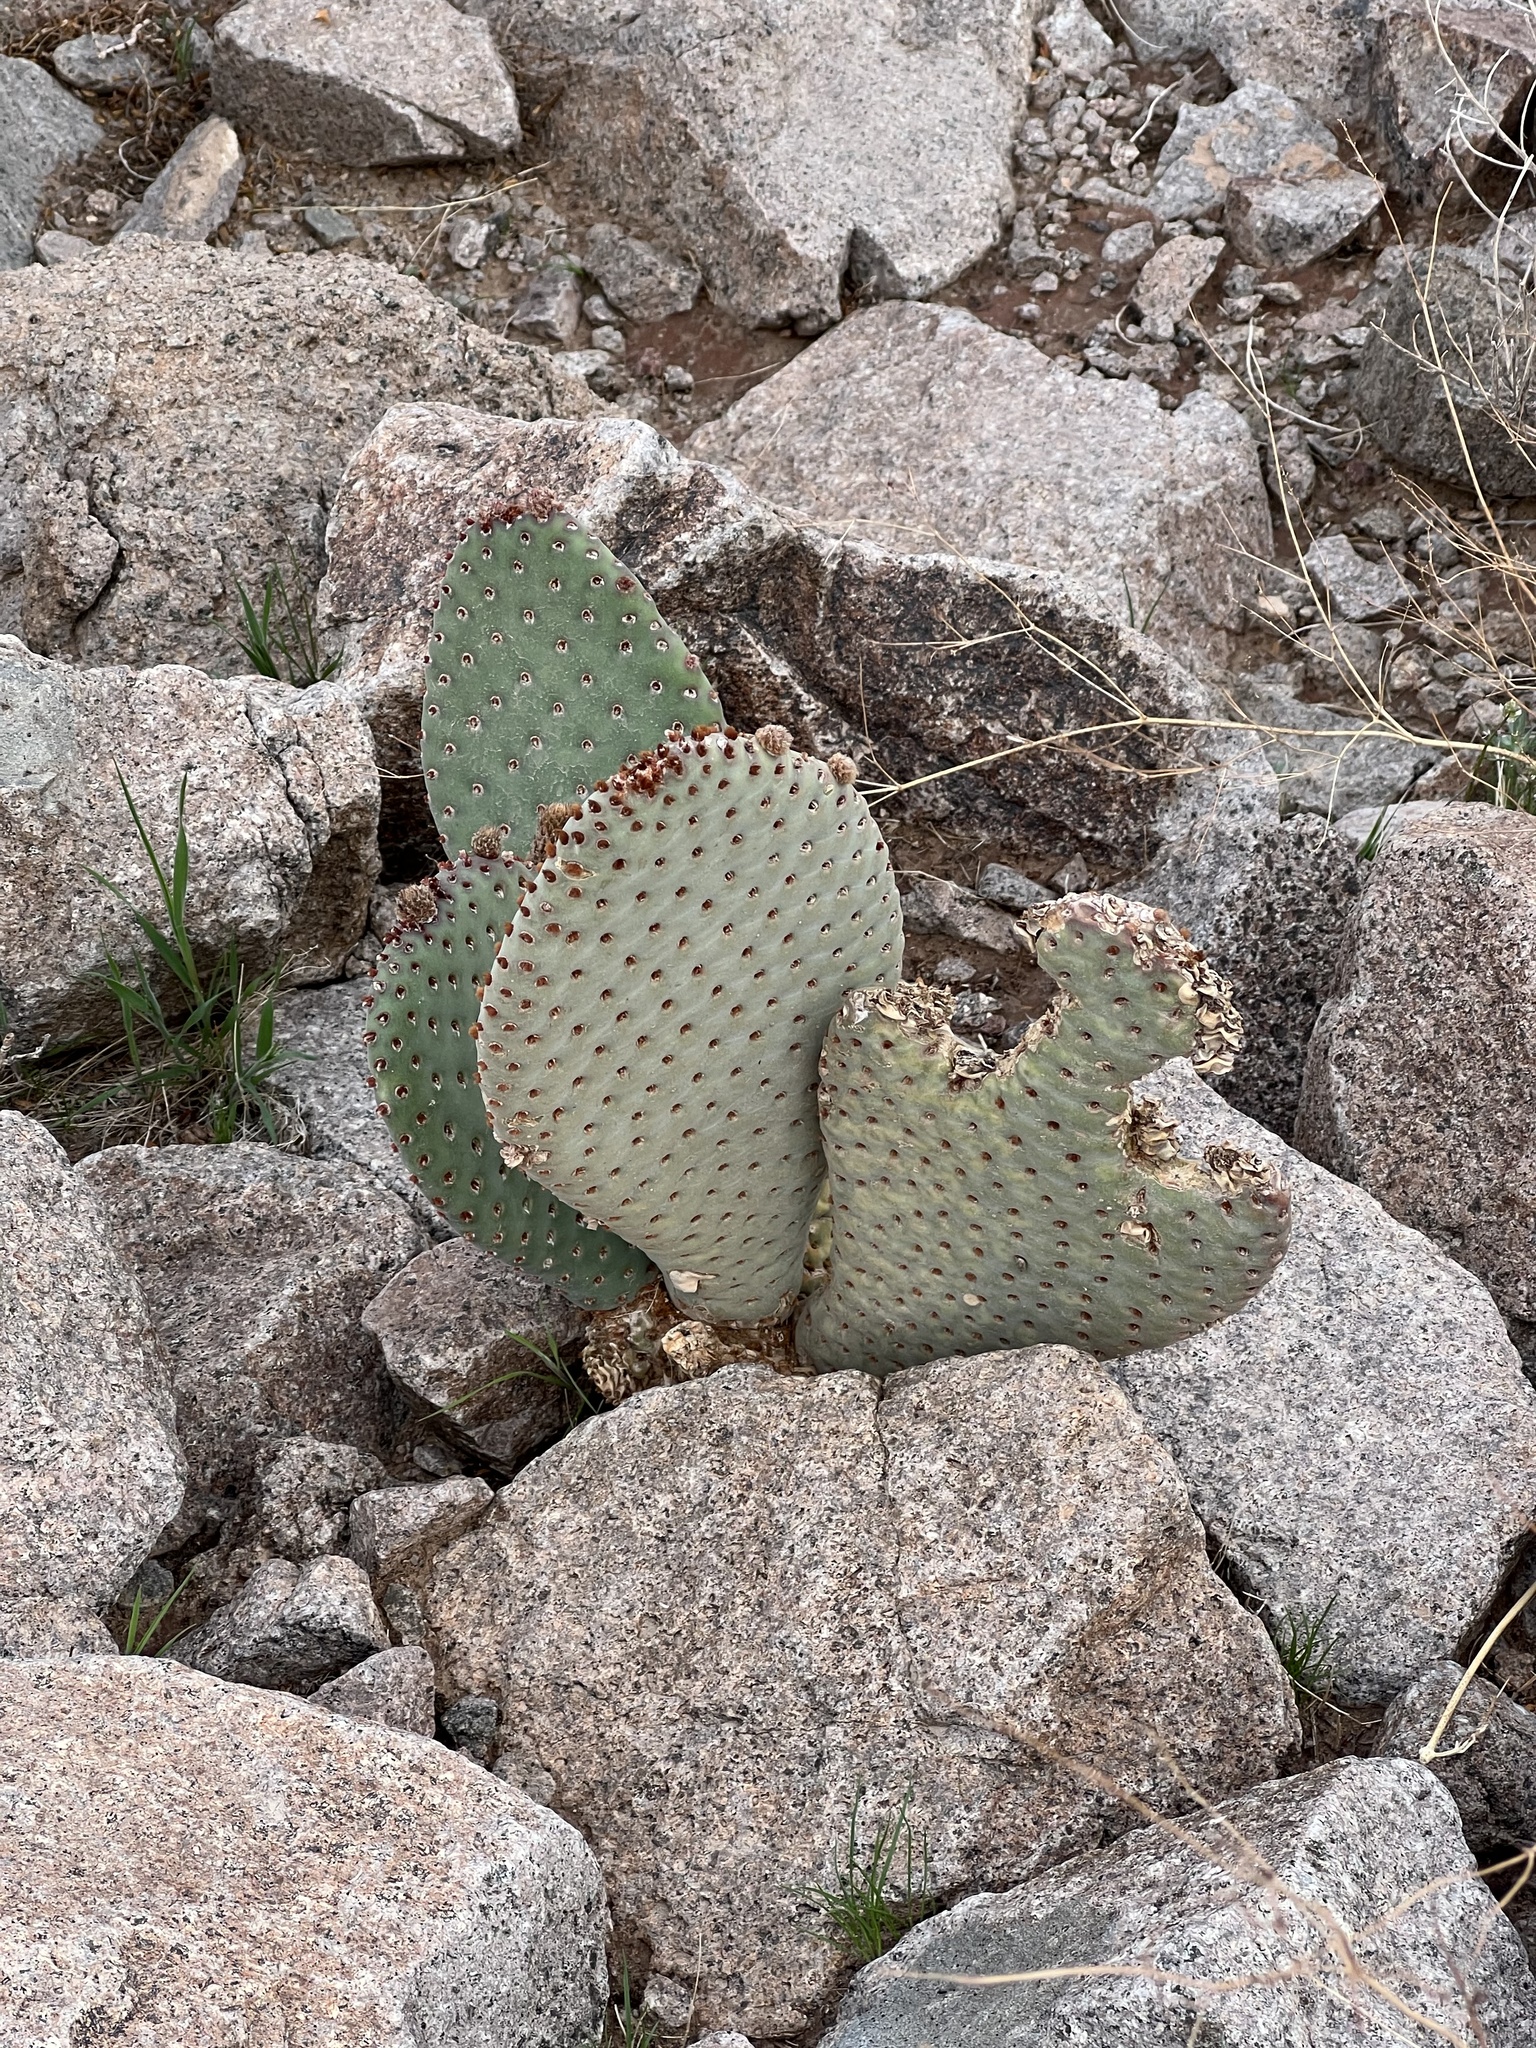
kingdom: Plantae
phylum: Tracheophyta
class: Magnoliopsida
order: Caryophyllales
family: Cactaceae
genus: Opuntia
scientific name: Opuntia basilaris
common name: Beavertail prickly-pear
